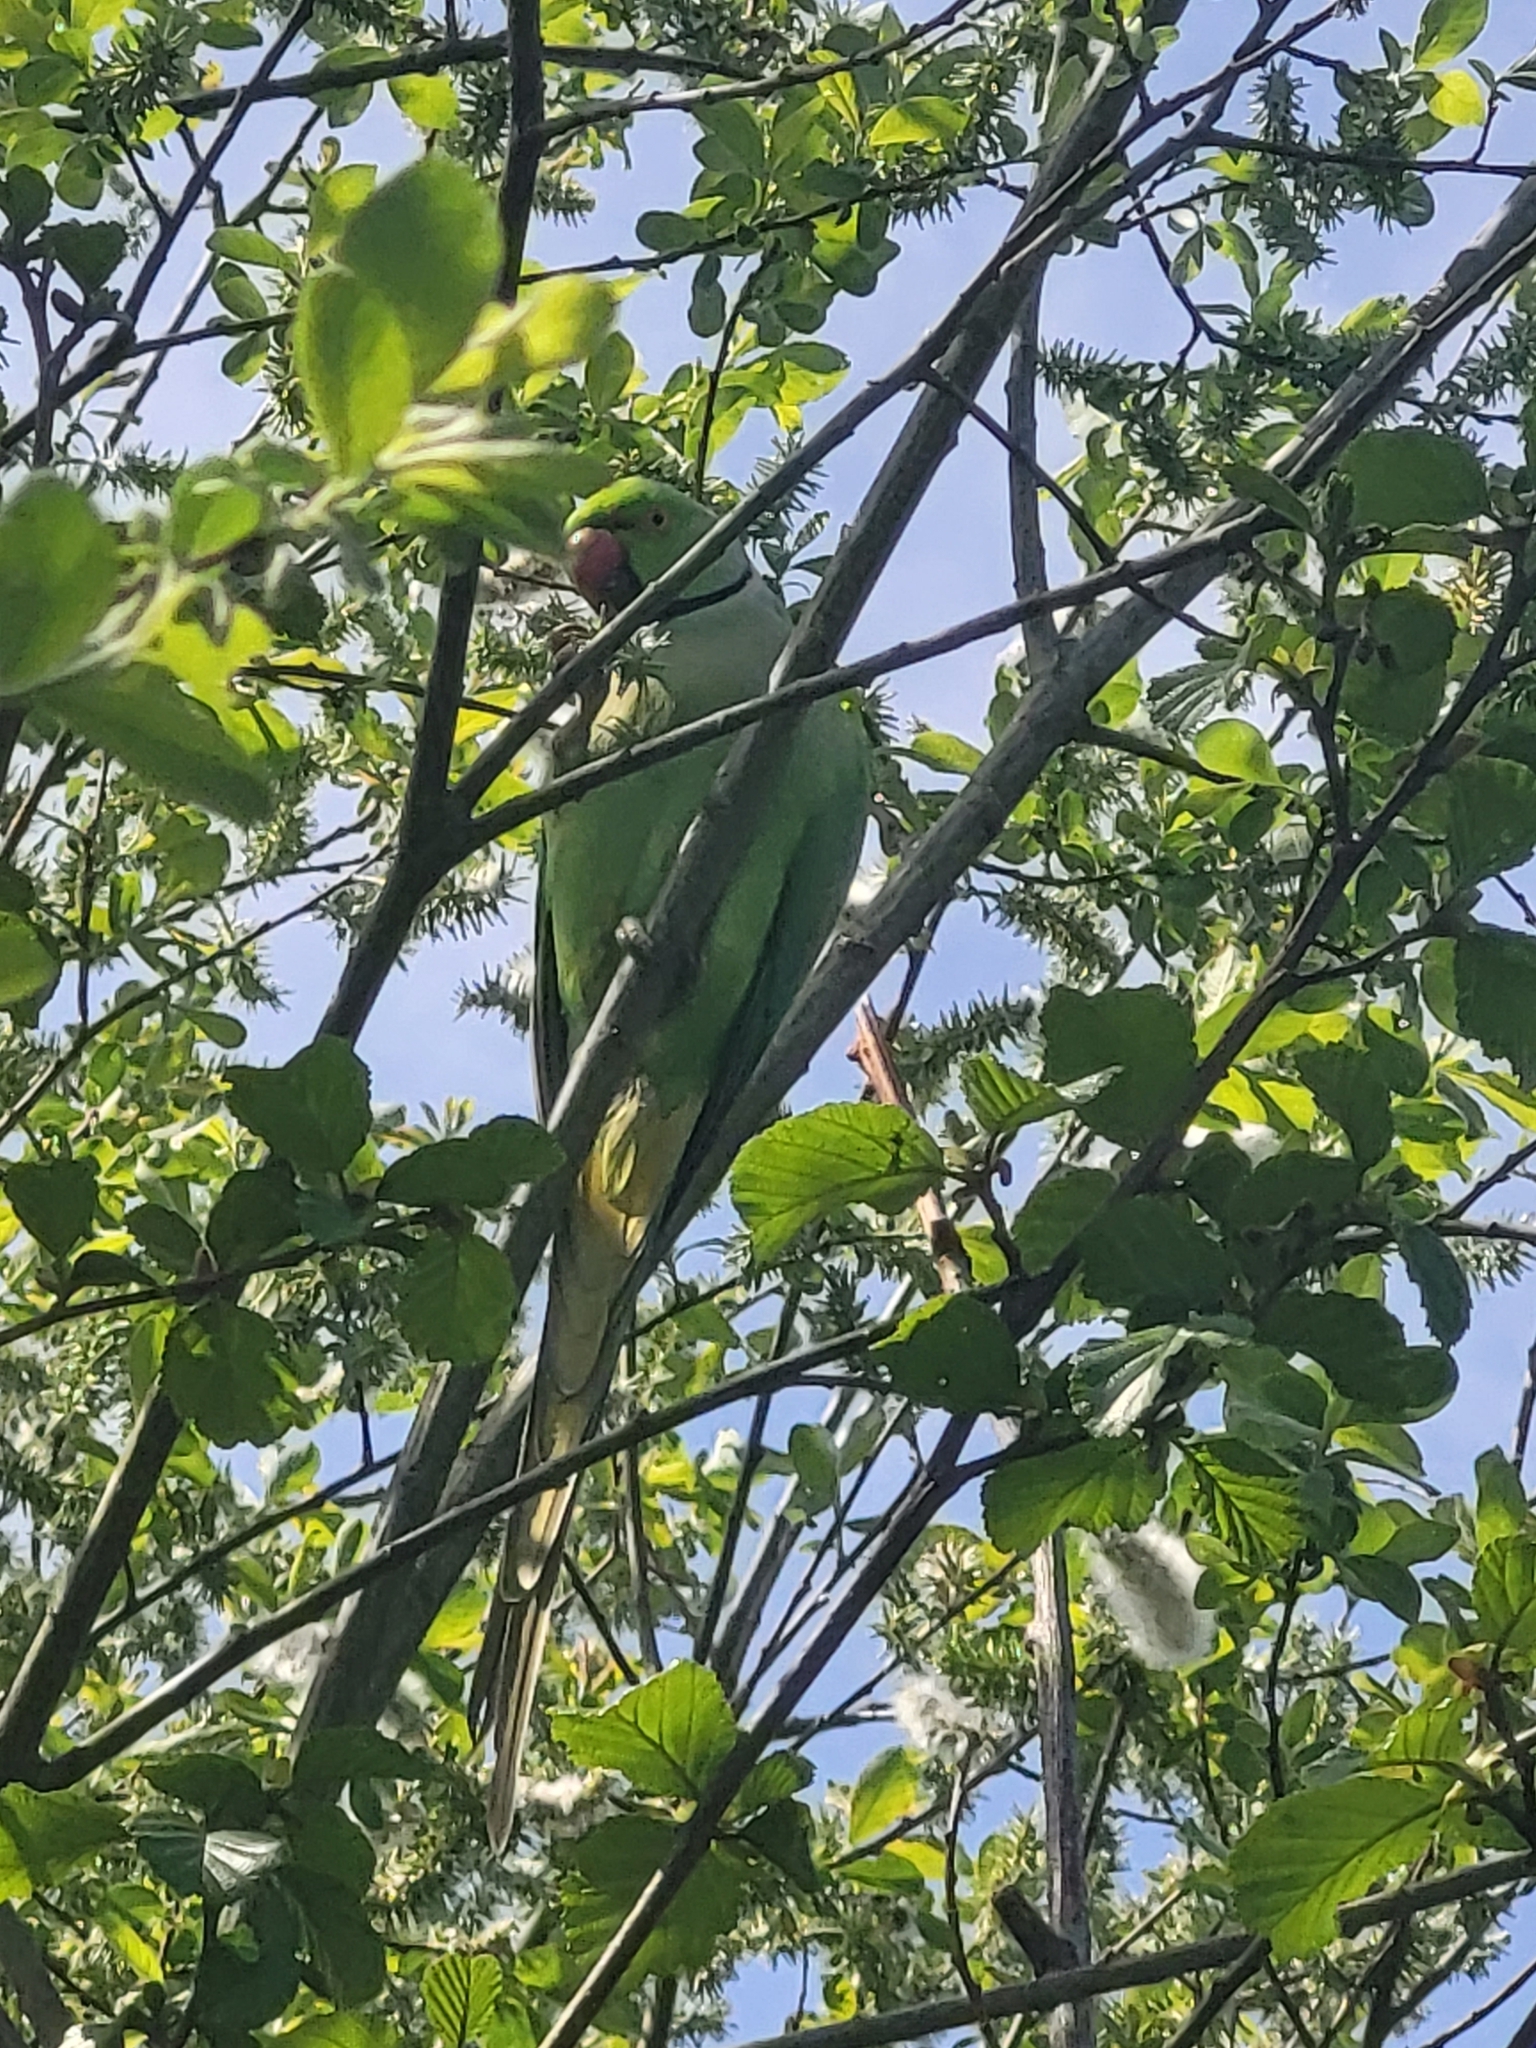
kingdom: Animalia
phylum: Chordata
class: Aves
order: Psittaciformes
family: Psittacidae
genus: Psittacula
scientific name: Psittacula krameri
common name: Rose-ringed parakeet
